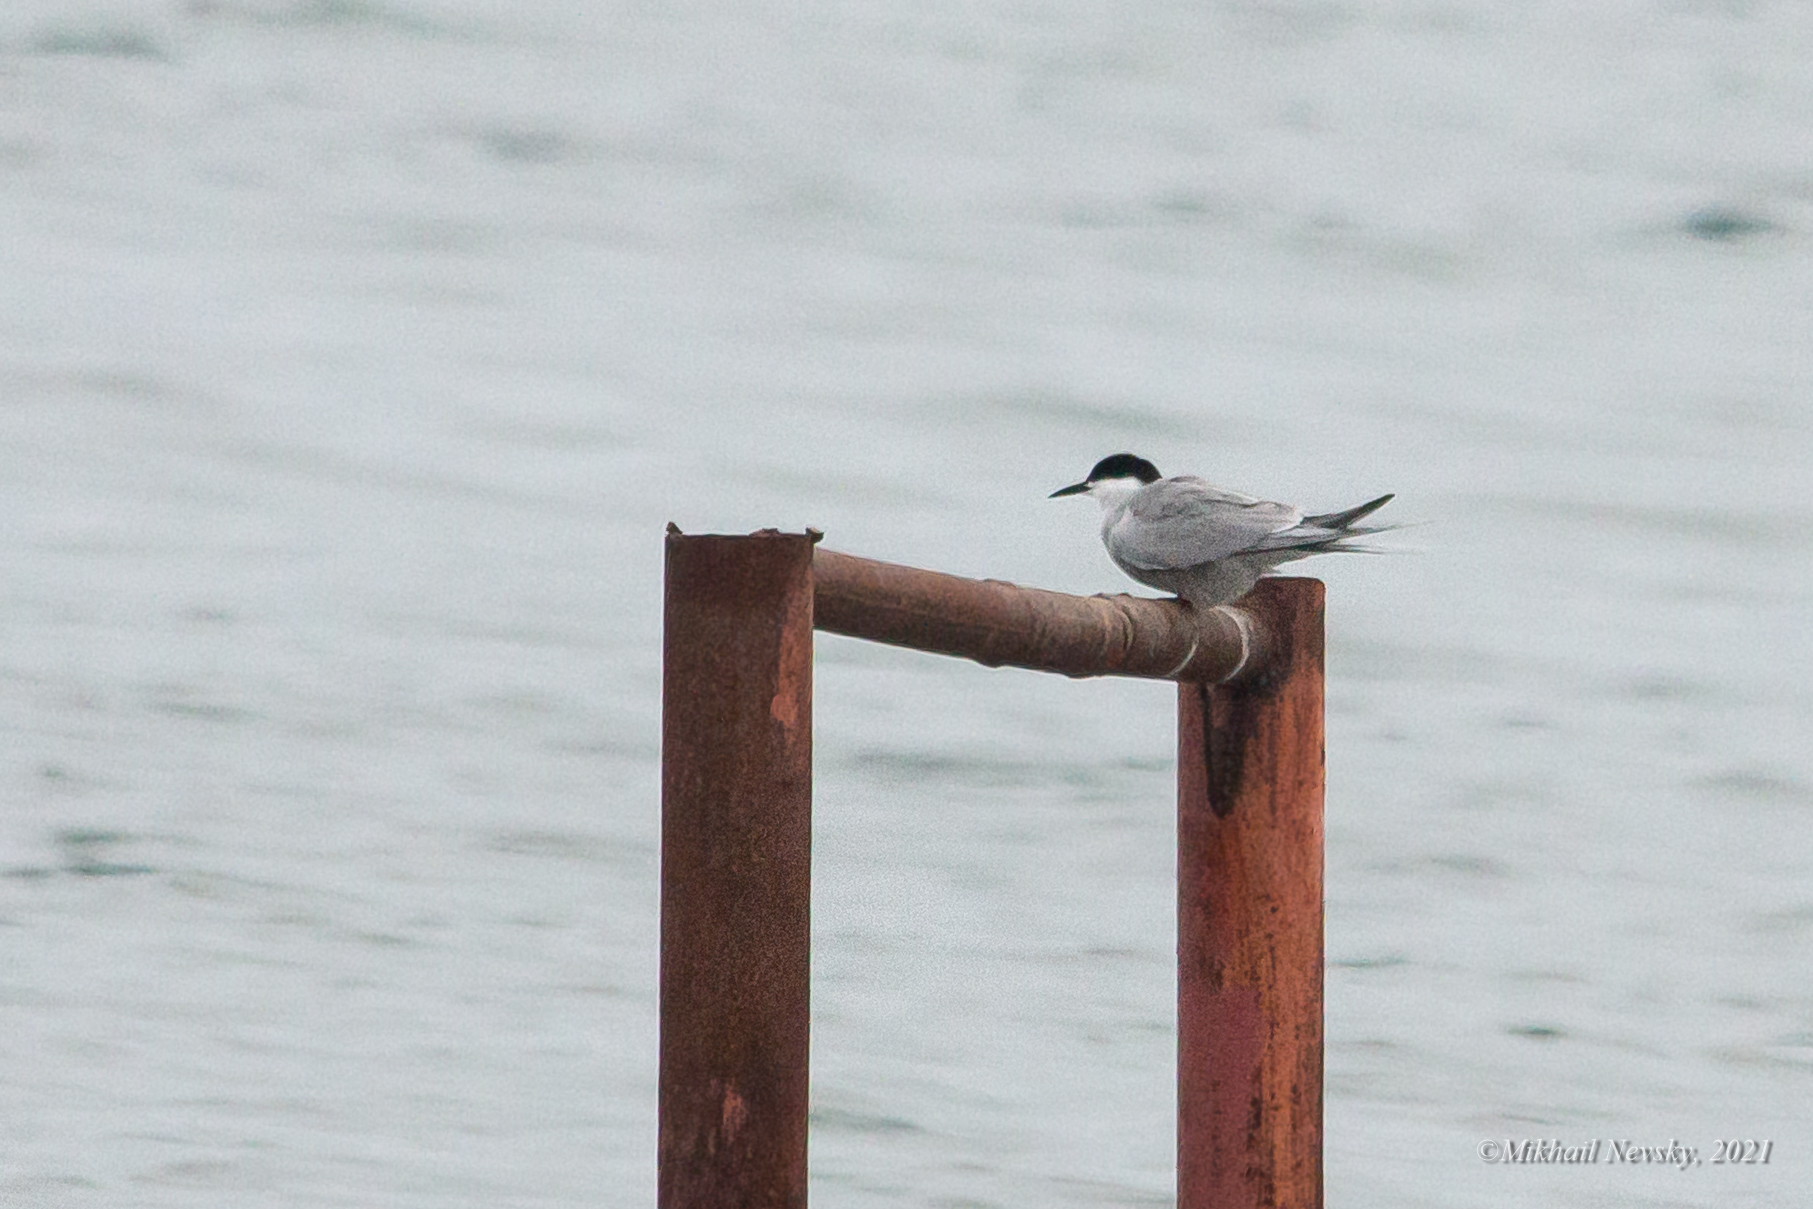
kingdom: Animalia
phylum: Chordata
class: Aves
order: Charadriiformes
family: Laridae
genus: Sterna
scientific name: Sterna hirundo
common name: Common tern
